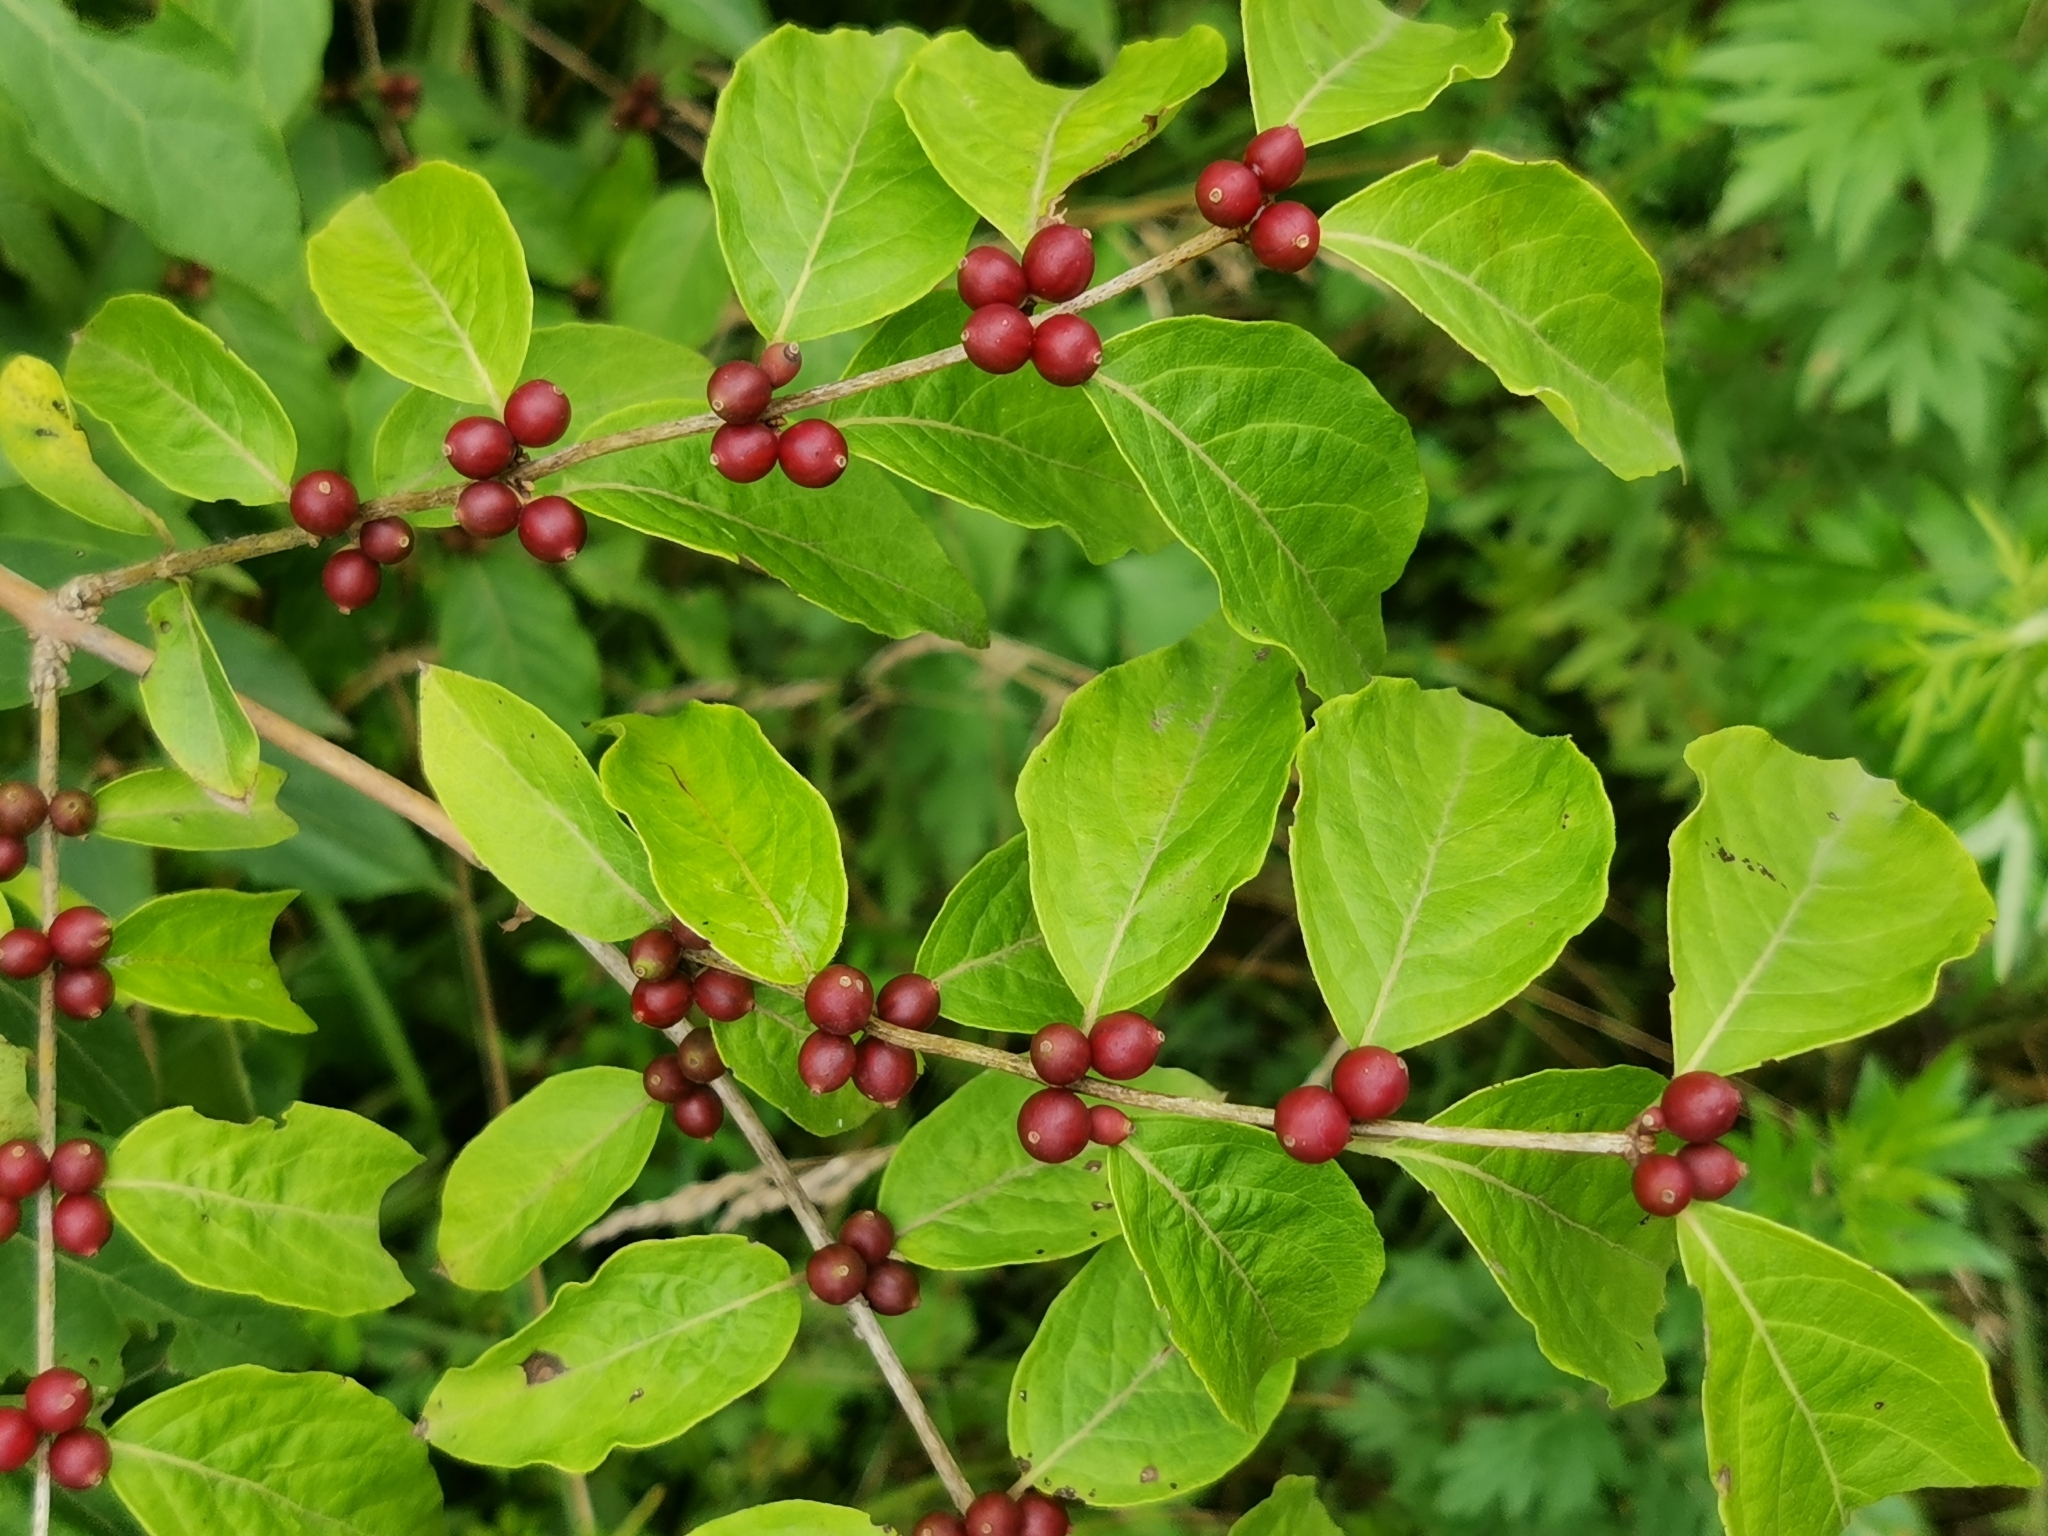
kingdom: Plantae
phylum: Tracheophyta
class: Magnoliopsida
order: Dipsacales
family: Caprifoliaceae
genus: Lonicera
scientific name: Lonicera maackii
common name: Amur honeysuckle
